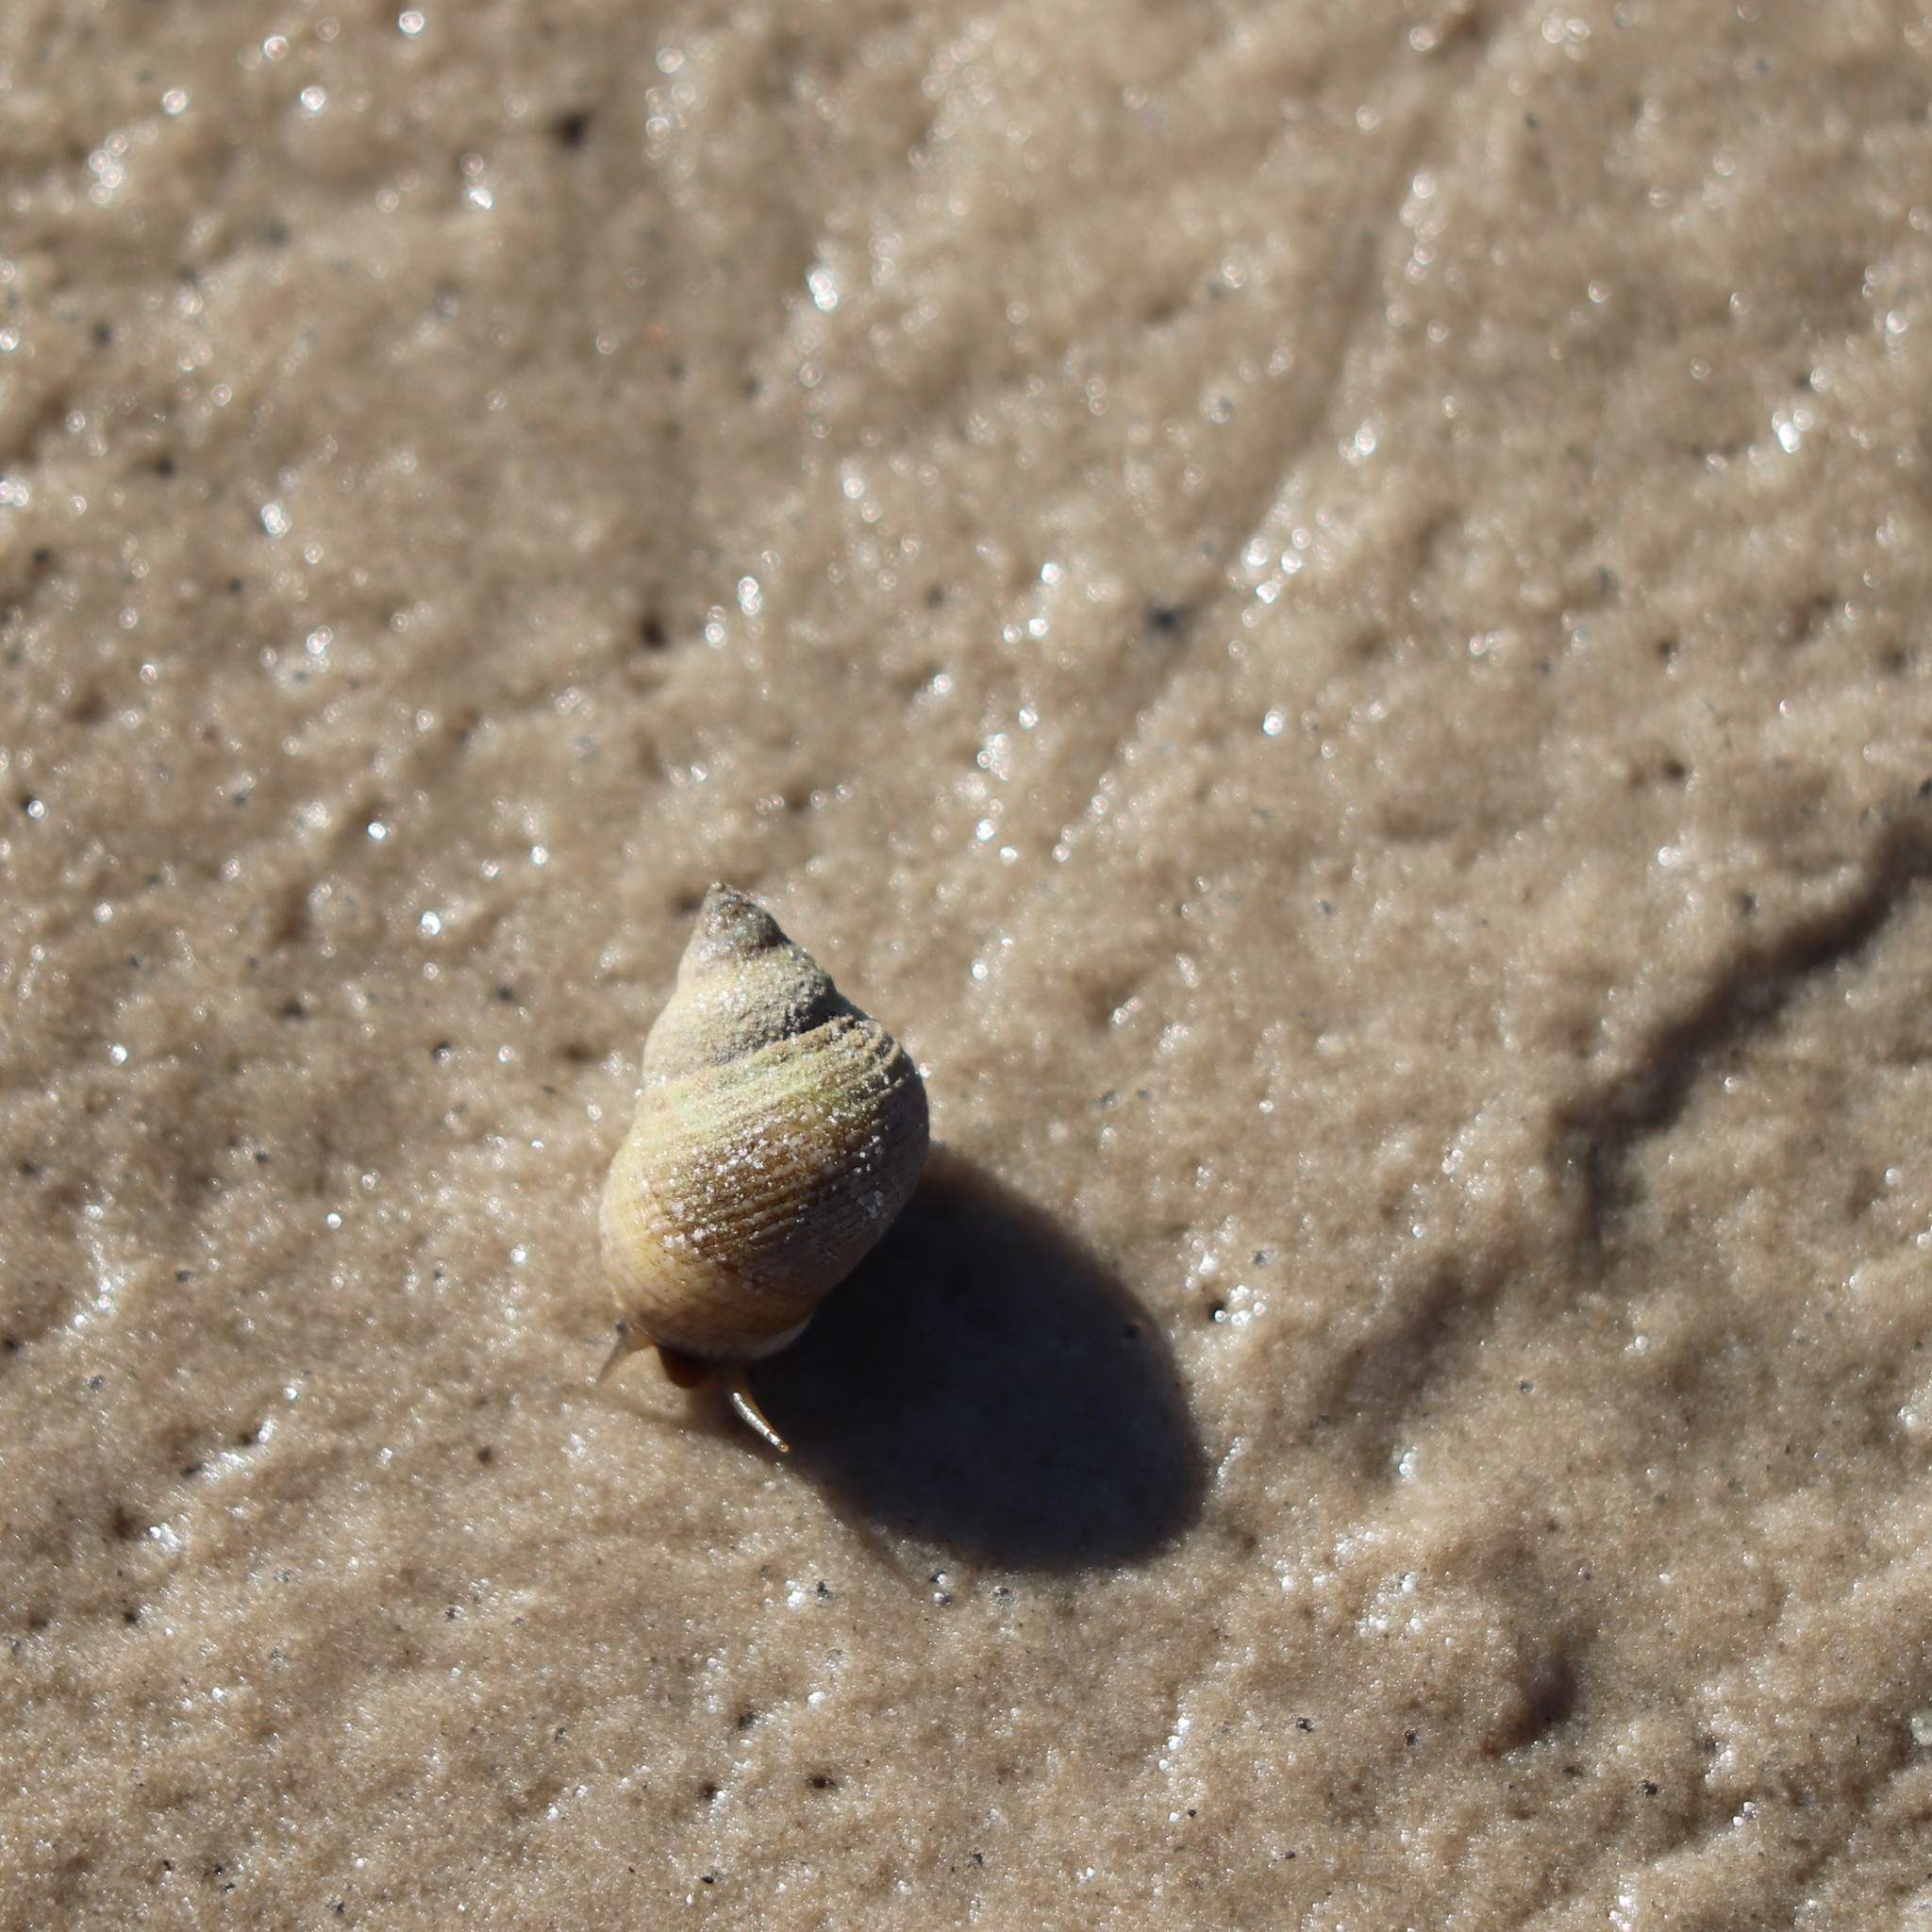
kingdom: Animalia
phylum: Mollusca
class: Gastropoda
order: Littorinimorpha
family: Littorinidae
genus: Littoraria
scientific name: Littoraria irrorata
